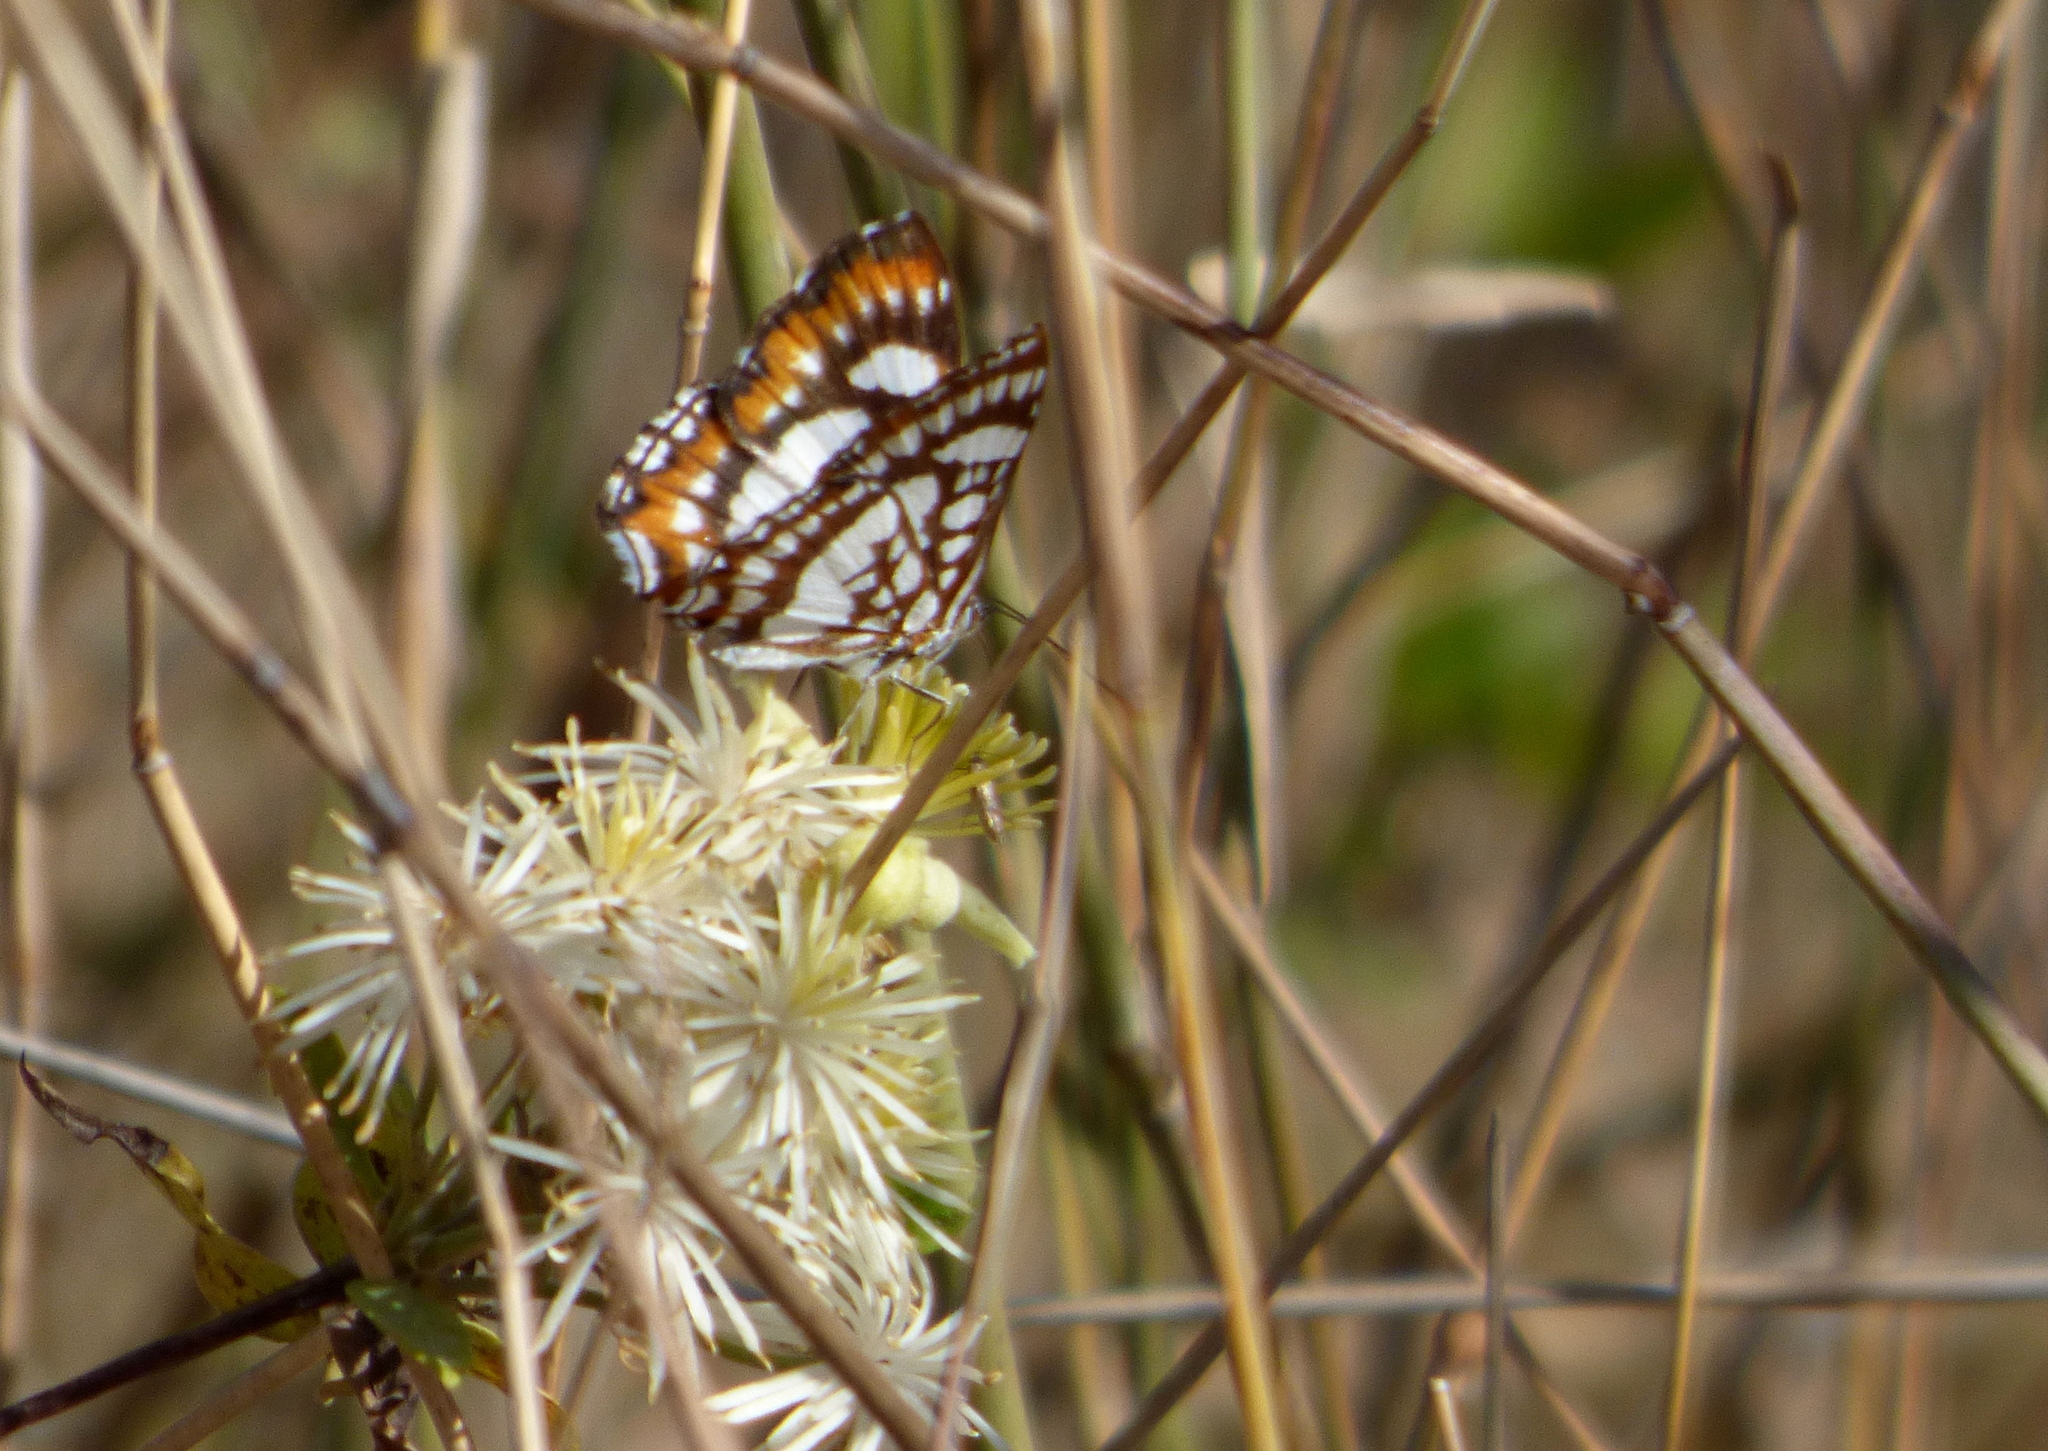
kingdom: Animalia
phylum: Arthropoda
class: Insecta
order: Lepidoptera
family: Riodinidae
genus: Ariconias
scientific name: Ariconias glaphyra
